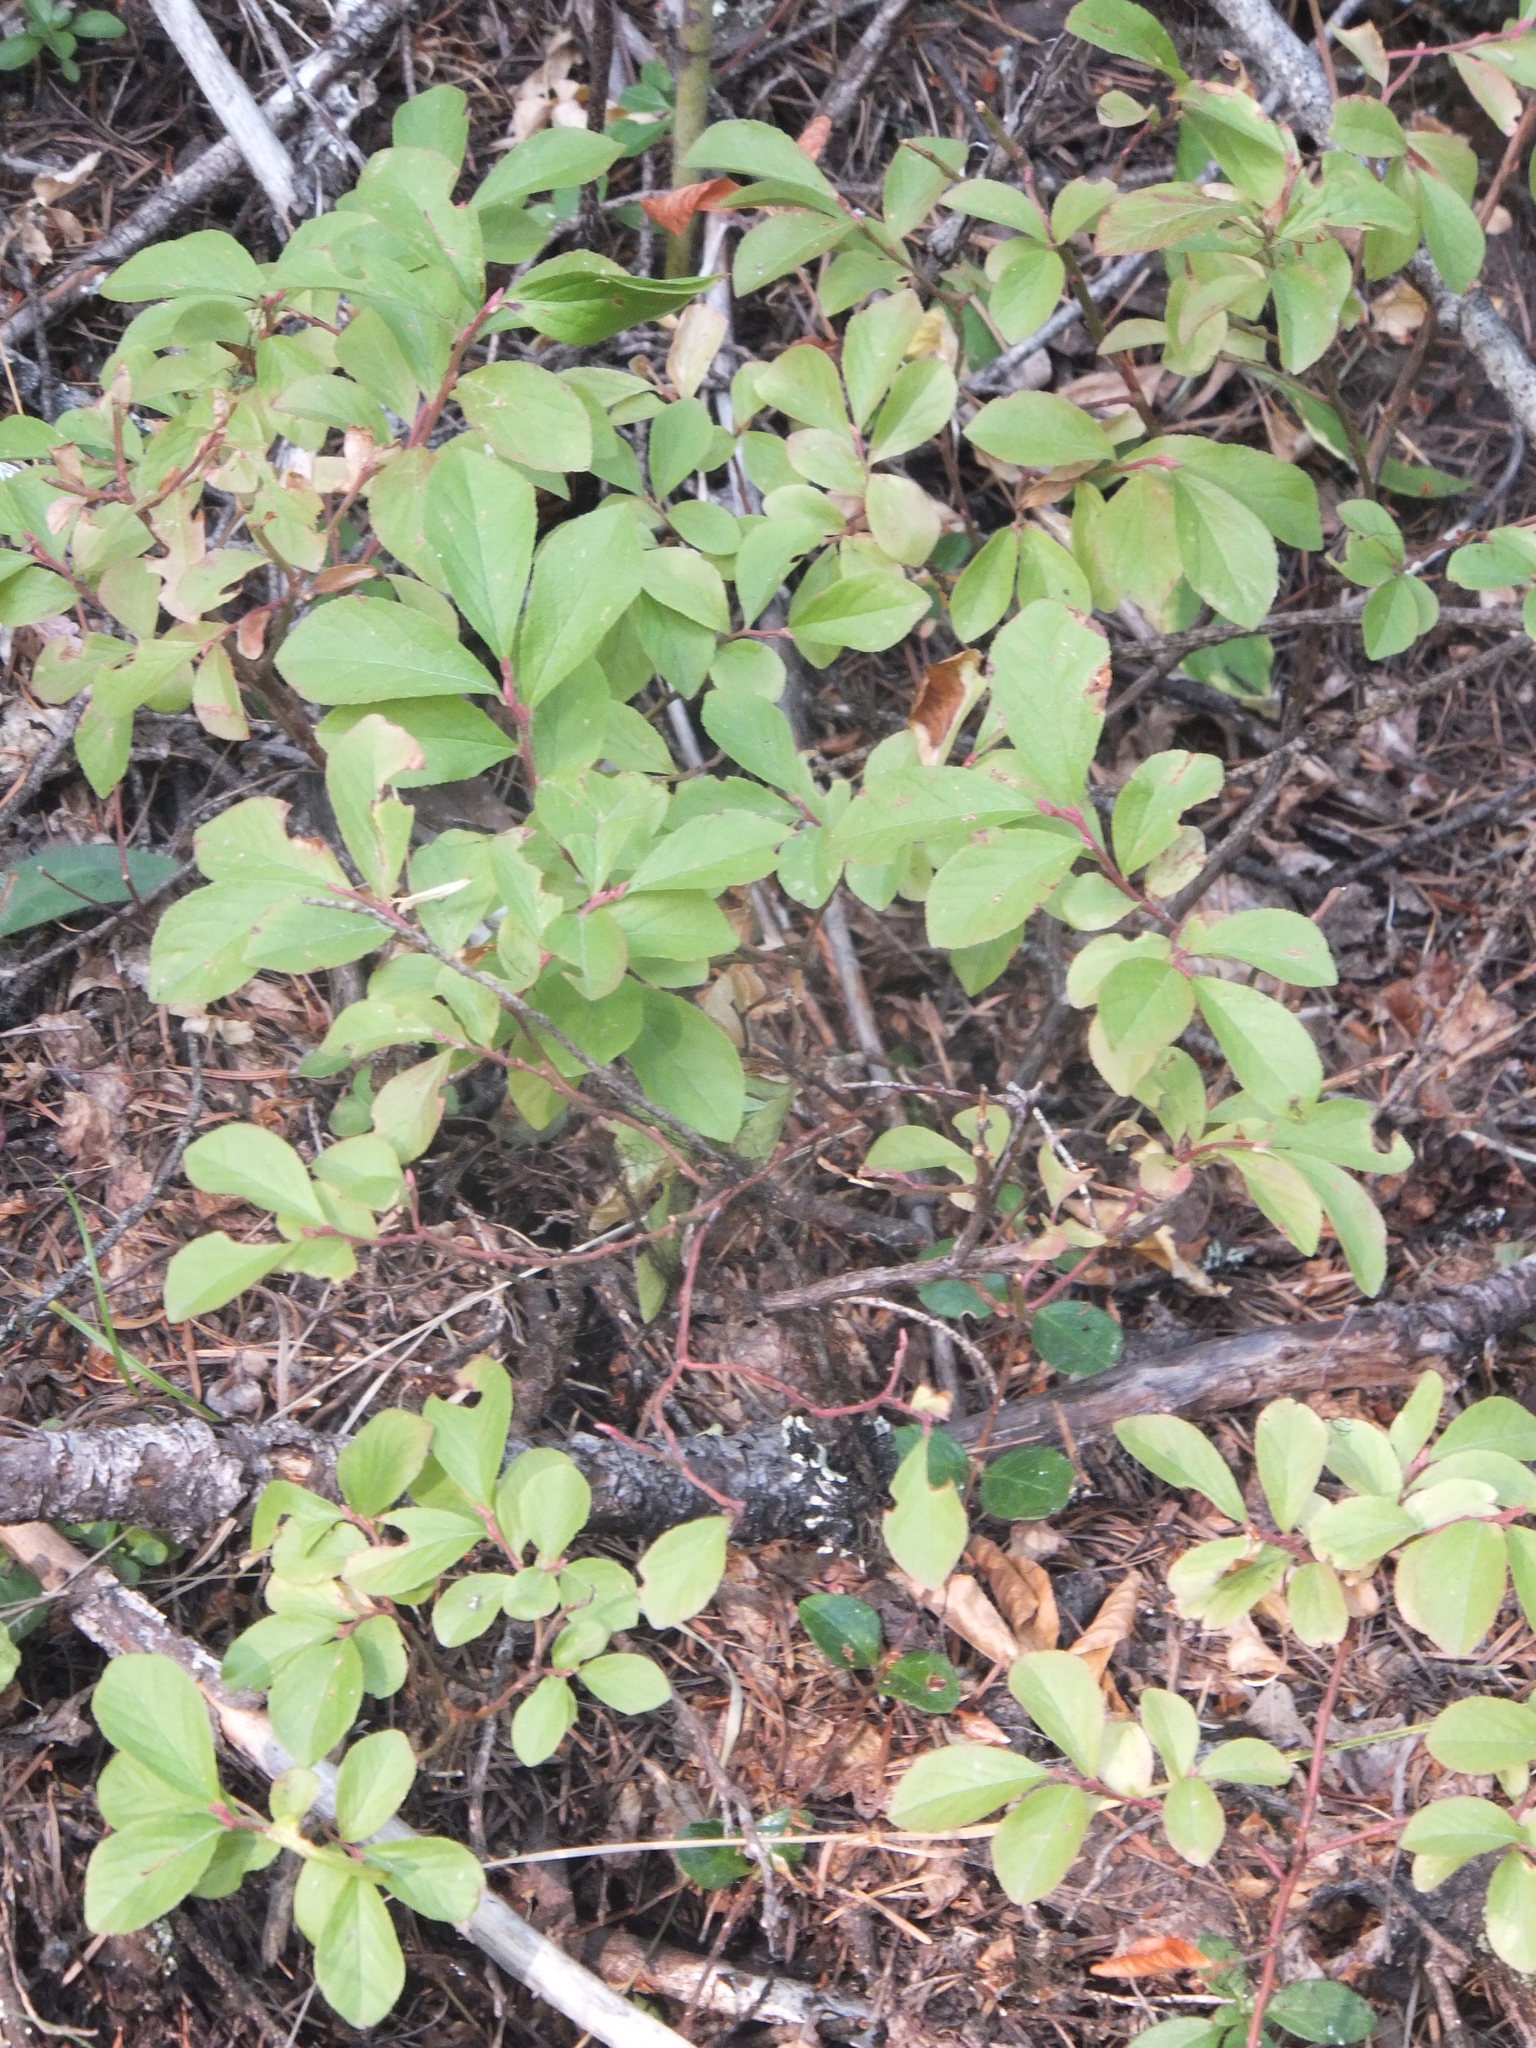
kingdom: Plantae
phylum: Tracheophyta
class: Magnoliopsida
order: Ericales
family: Ericaceae
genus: Vaccinium
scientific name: Vaccinium cespitosum
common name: Dwarf bilberry
